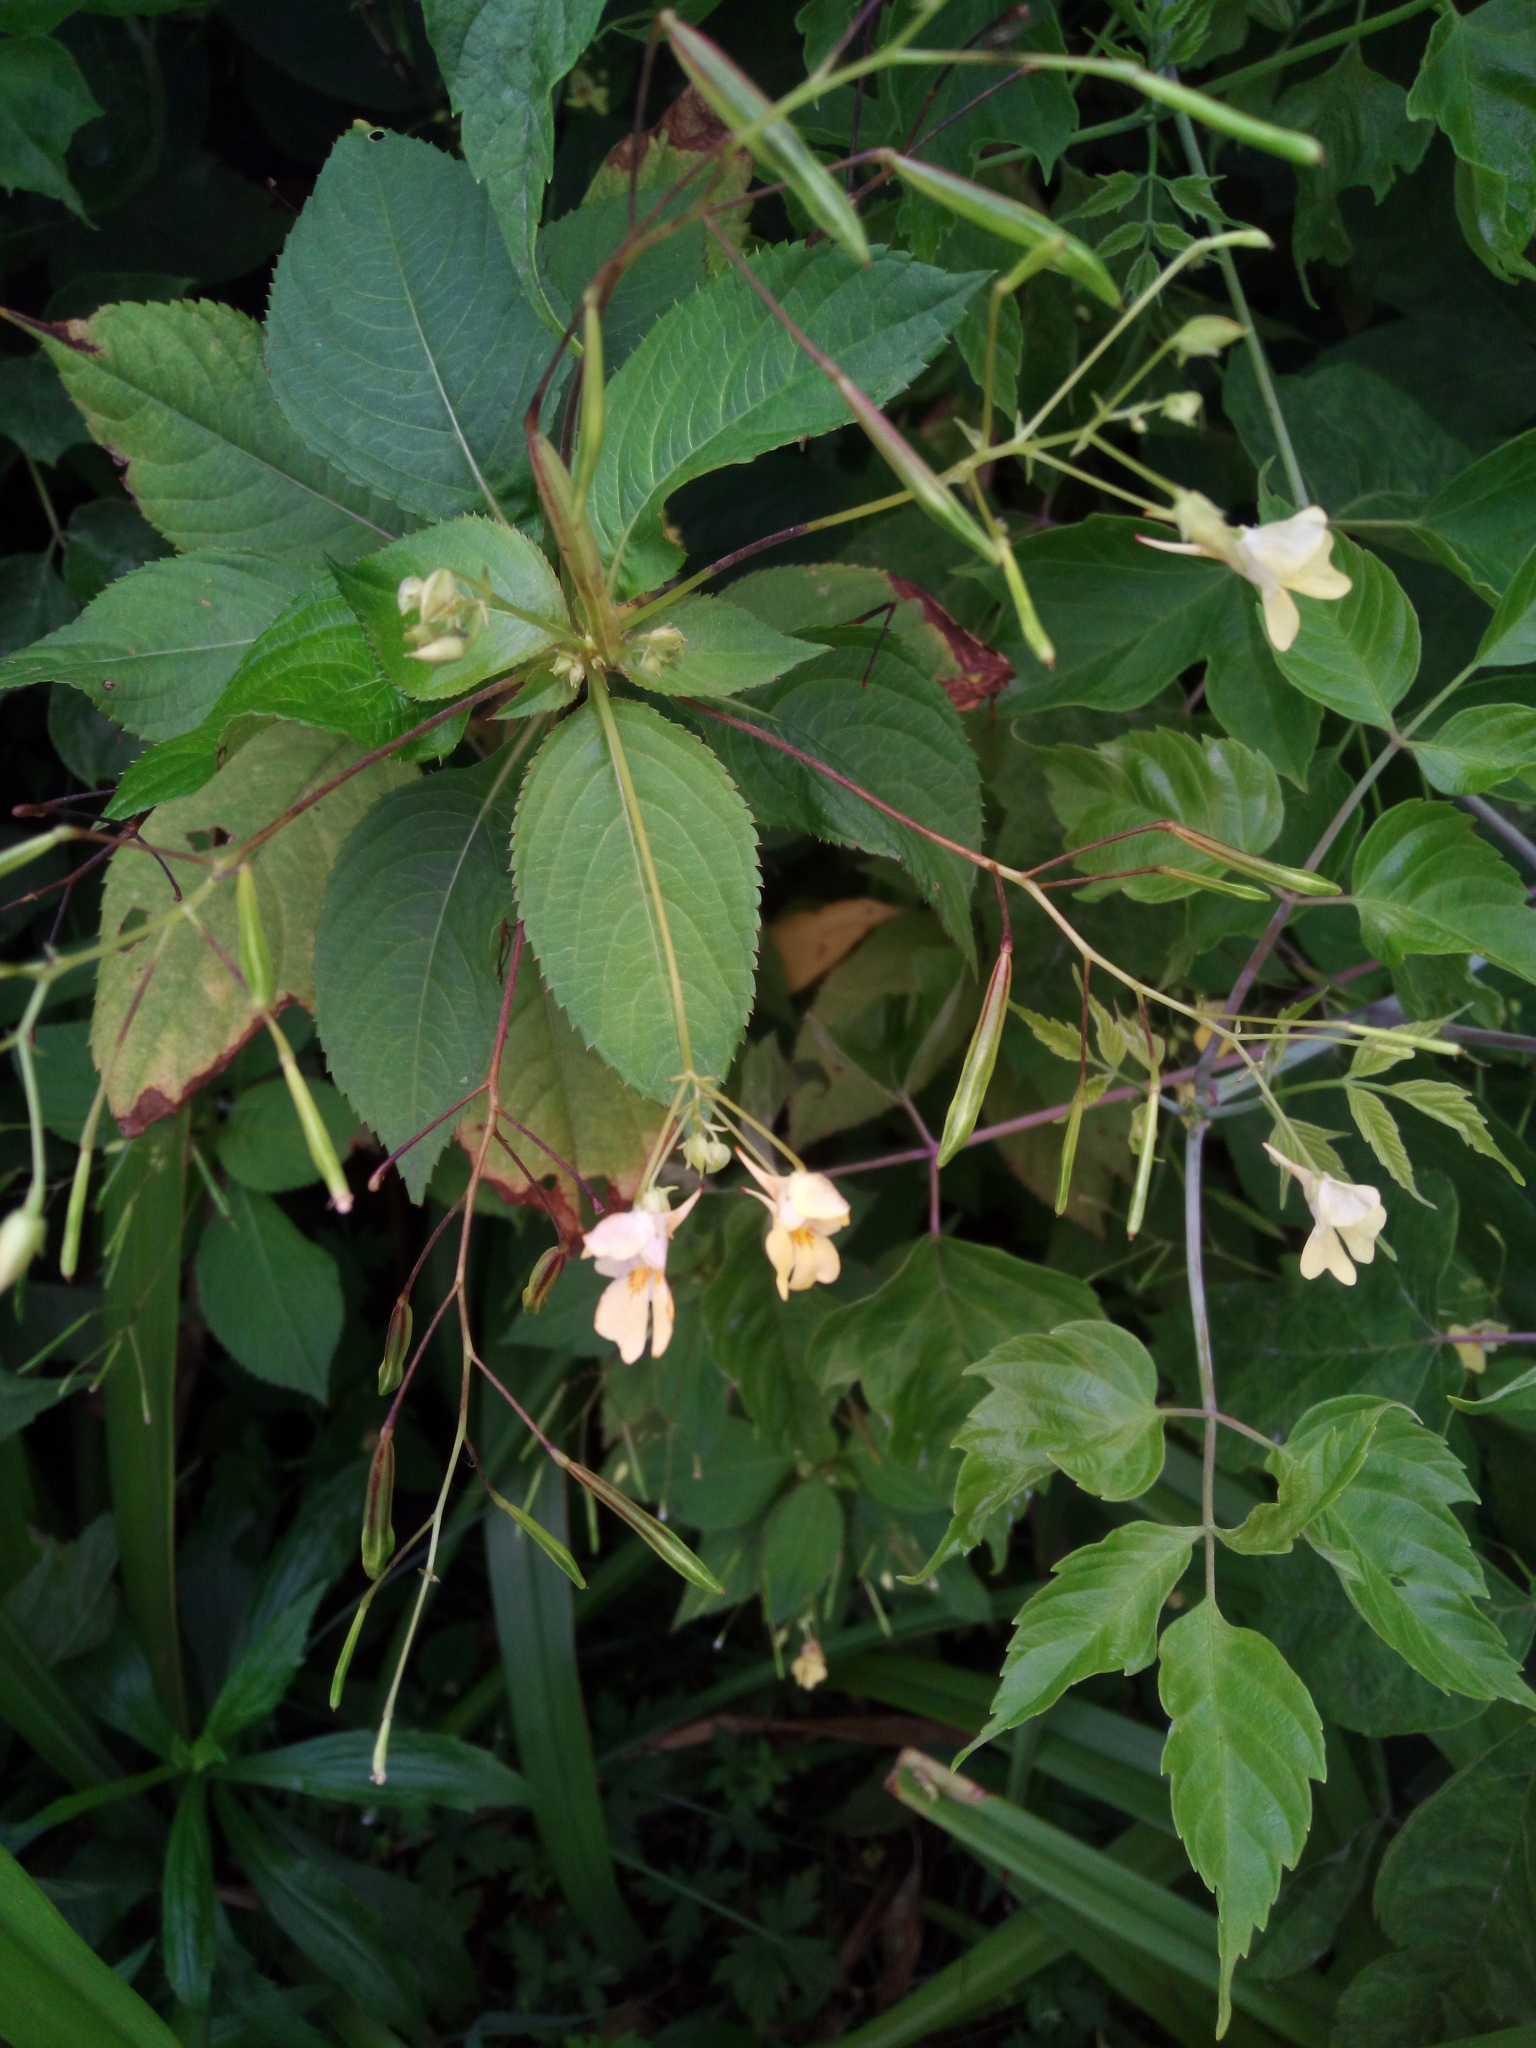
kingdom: Plantae
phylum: Tracheophyta
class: Magnoliopsida
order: Ericales
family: Balsaminaceae
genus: Impatiens
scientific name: Impatiens parviflora
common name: Small balsam
